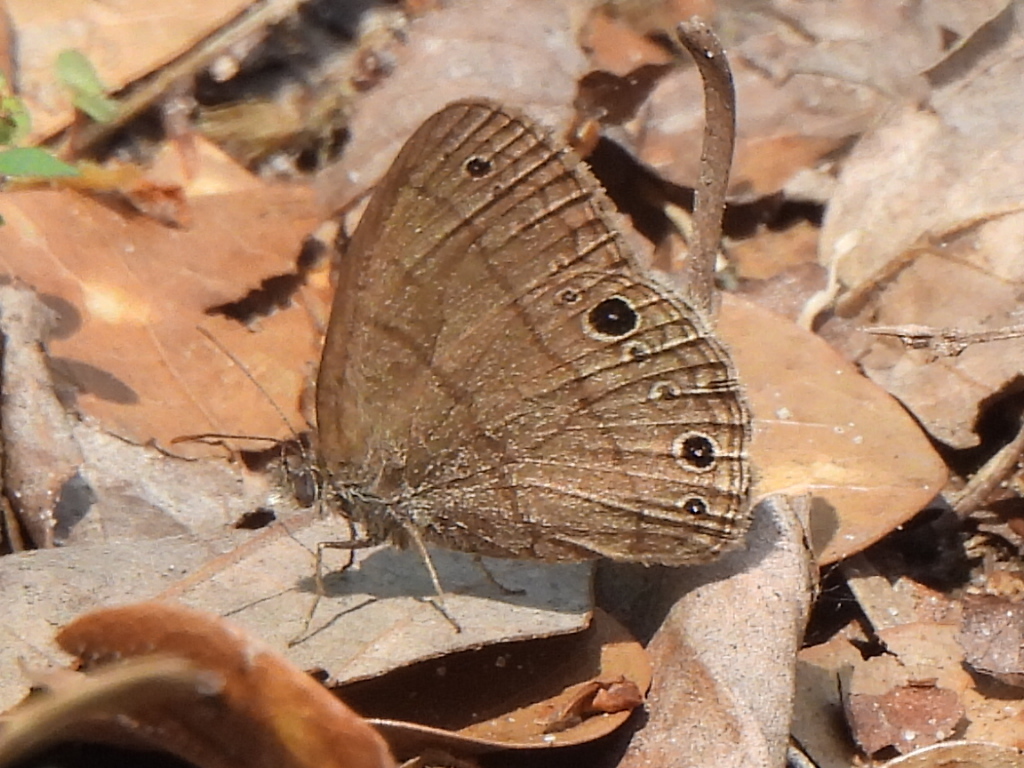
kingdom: Animalia
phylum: Arthropoda
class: Insecta
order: Lepidoptera
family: Nymphalidae
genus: Hermeuptychia
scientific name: Hermeuptychia hermes
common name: Hermes satyr
